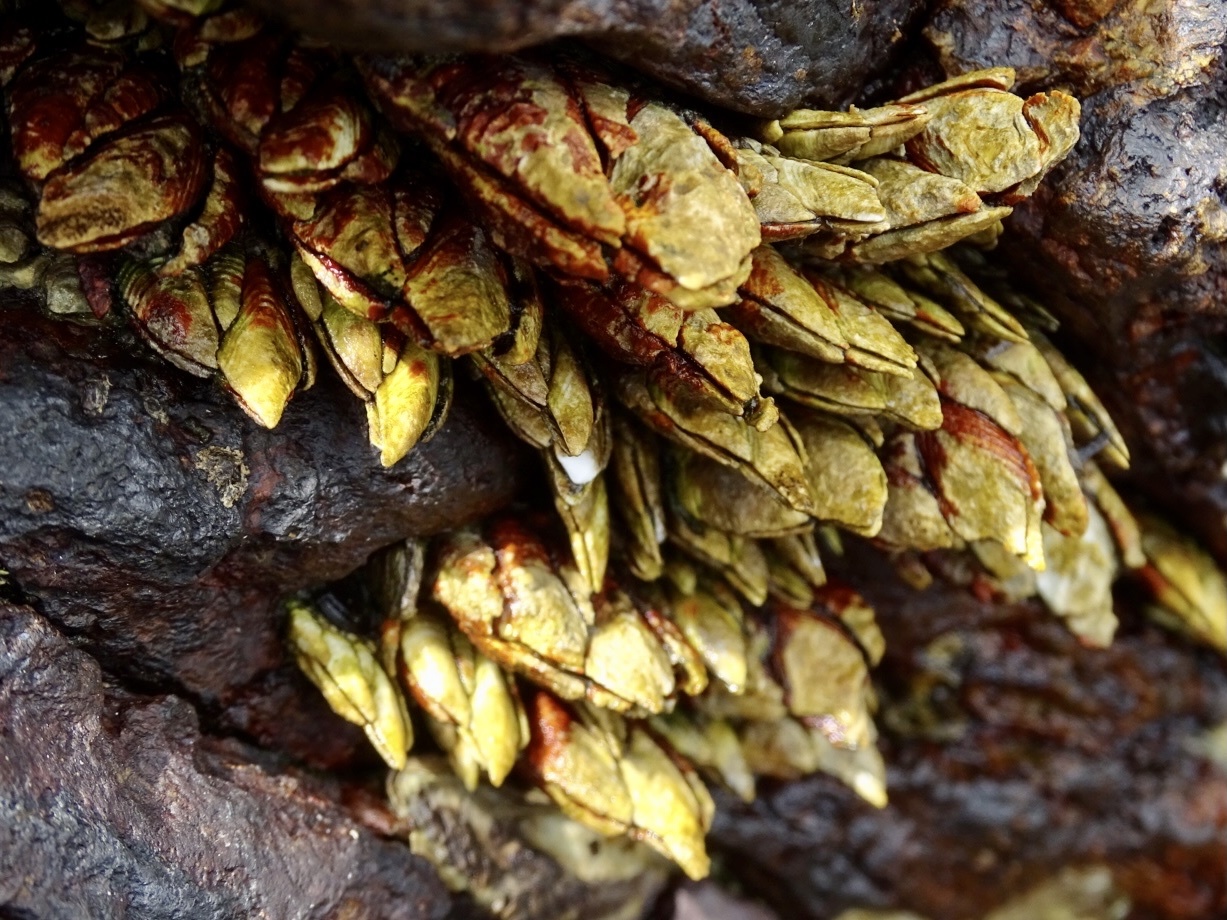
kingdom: Animalia
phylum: Arthropoda
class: Maxillopoda
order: Pedunculata
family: Pollicipedidae
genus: Capitulum
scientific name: Capitulum mitella
